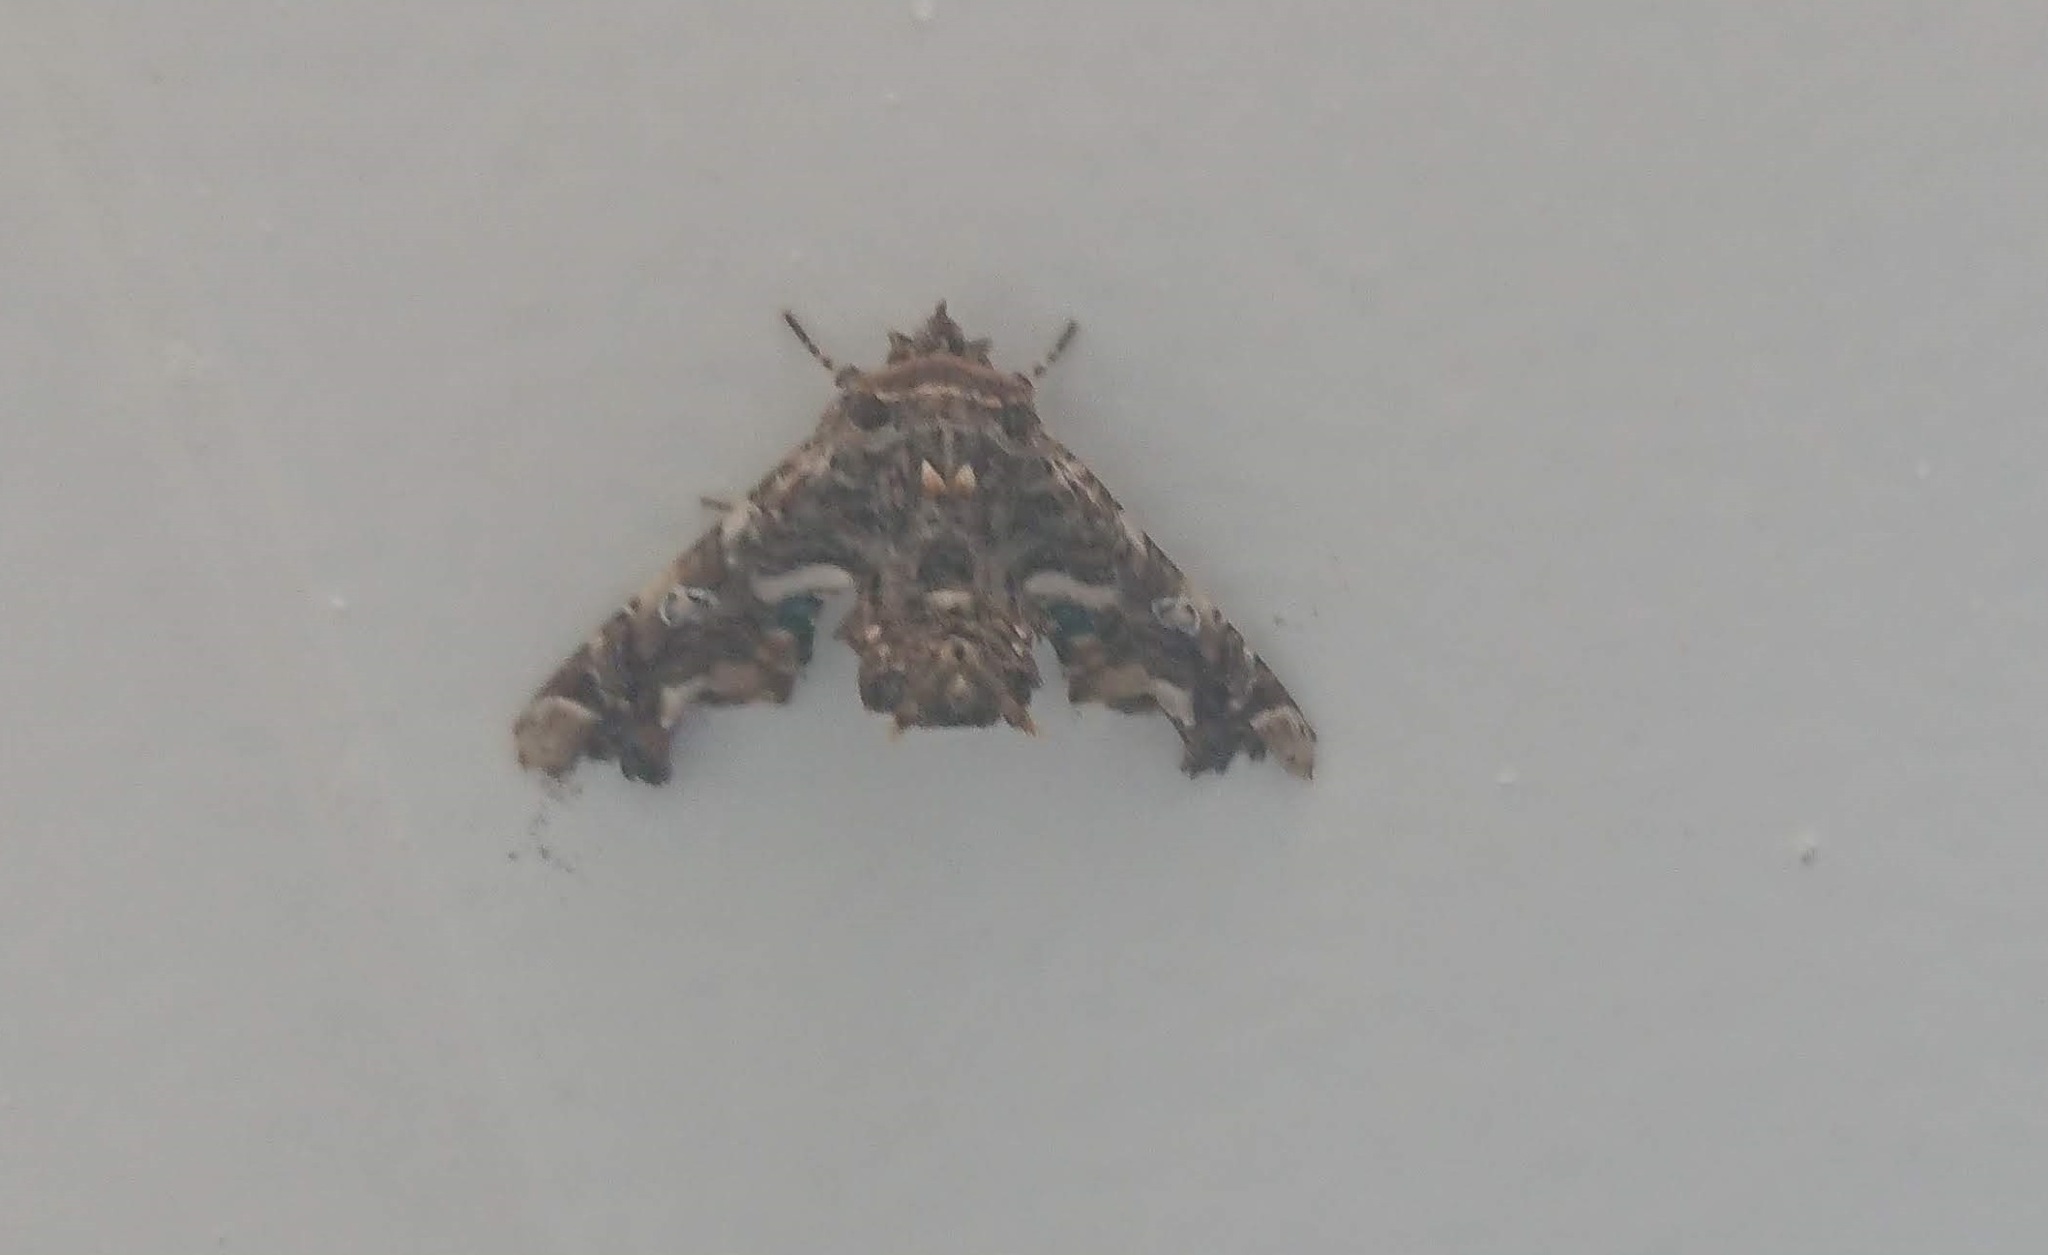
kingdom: Animalia
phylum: Arthropoda
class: Insecta
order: Lepidoptera
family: Euteliidae
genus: Eutelia
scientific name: Eutelia adulatrix
